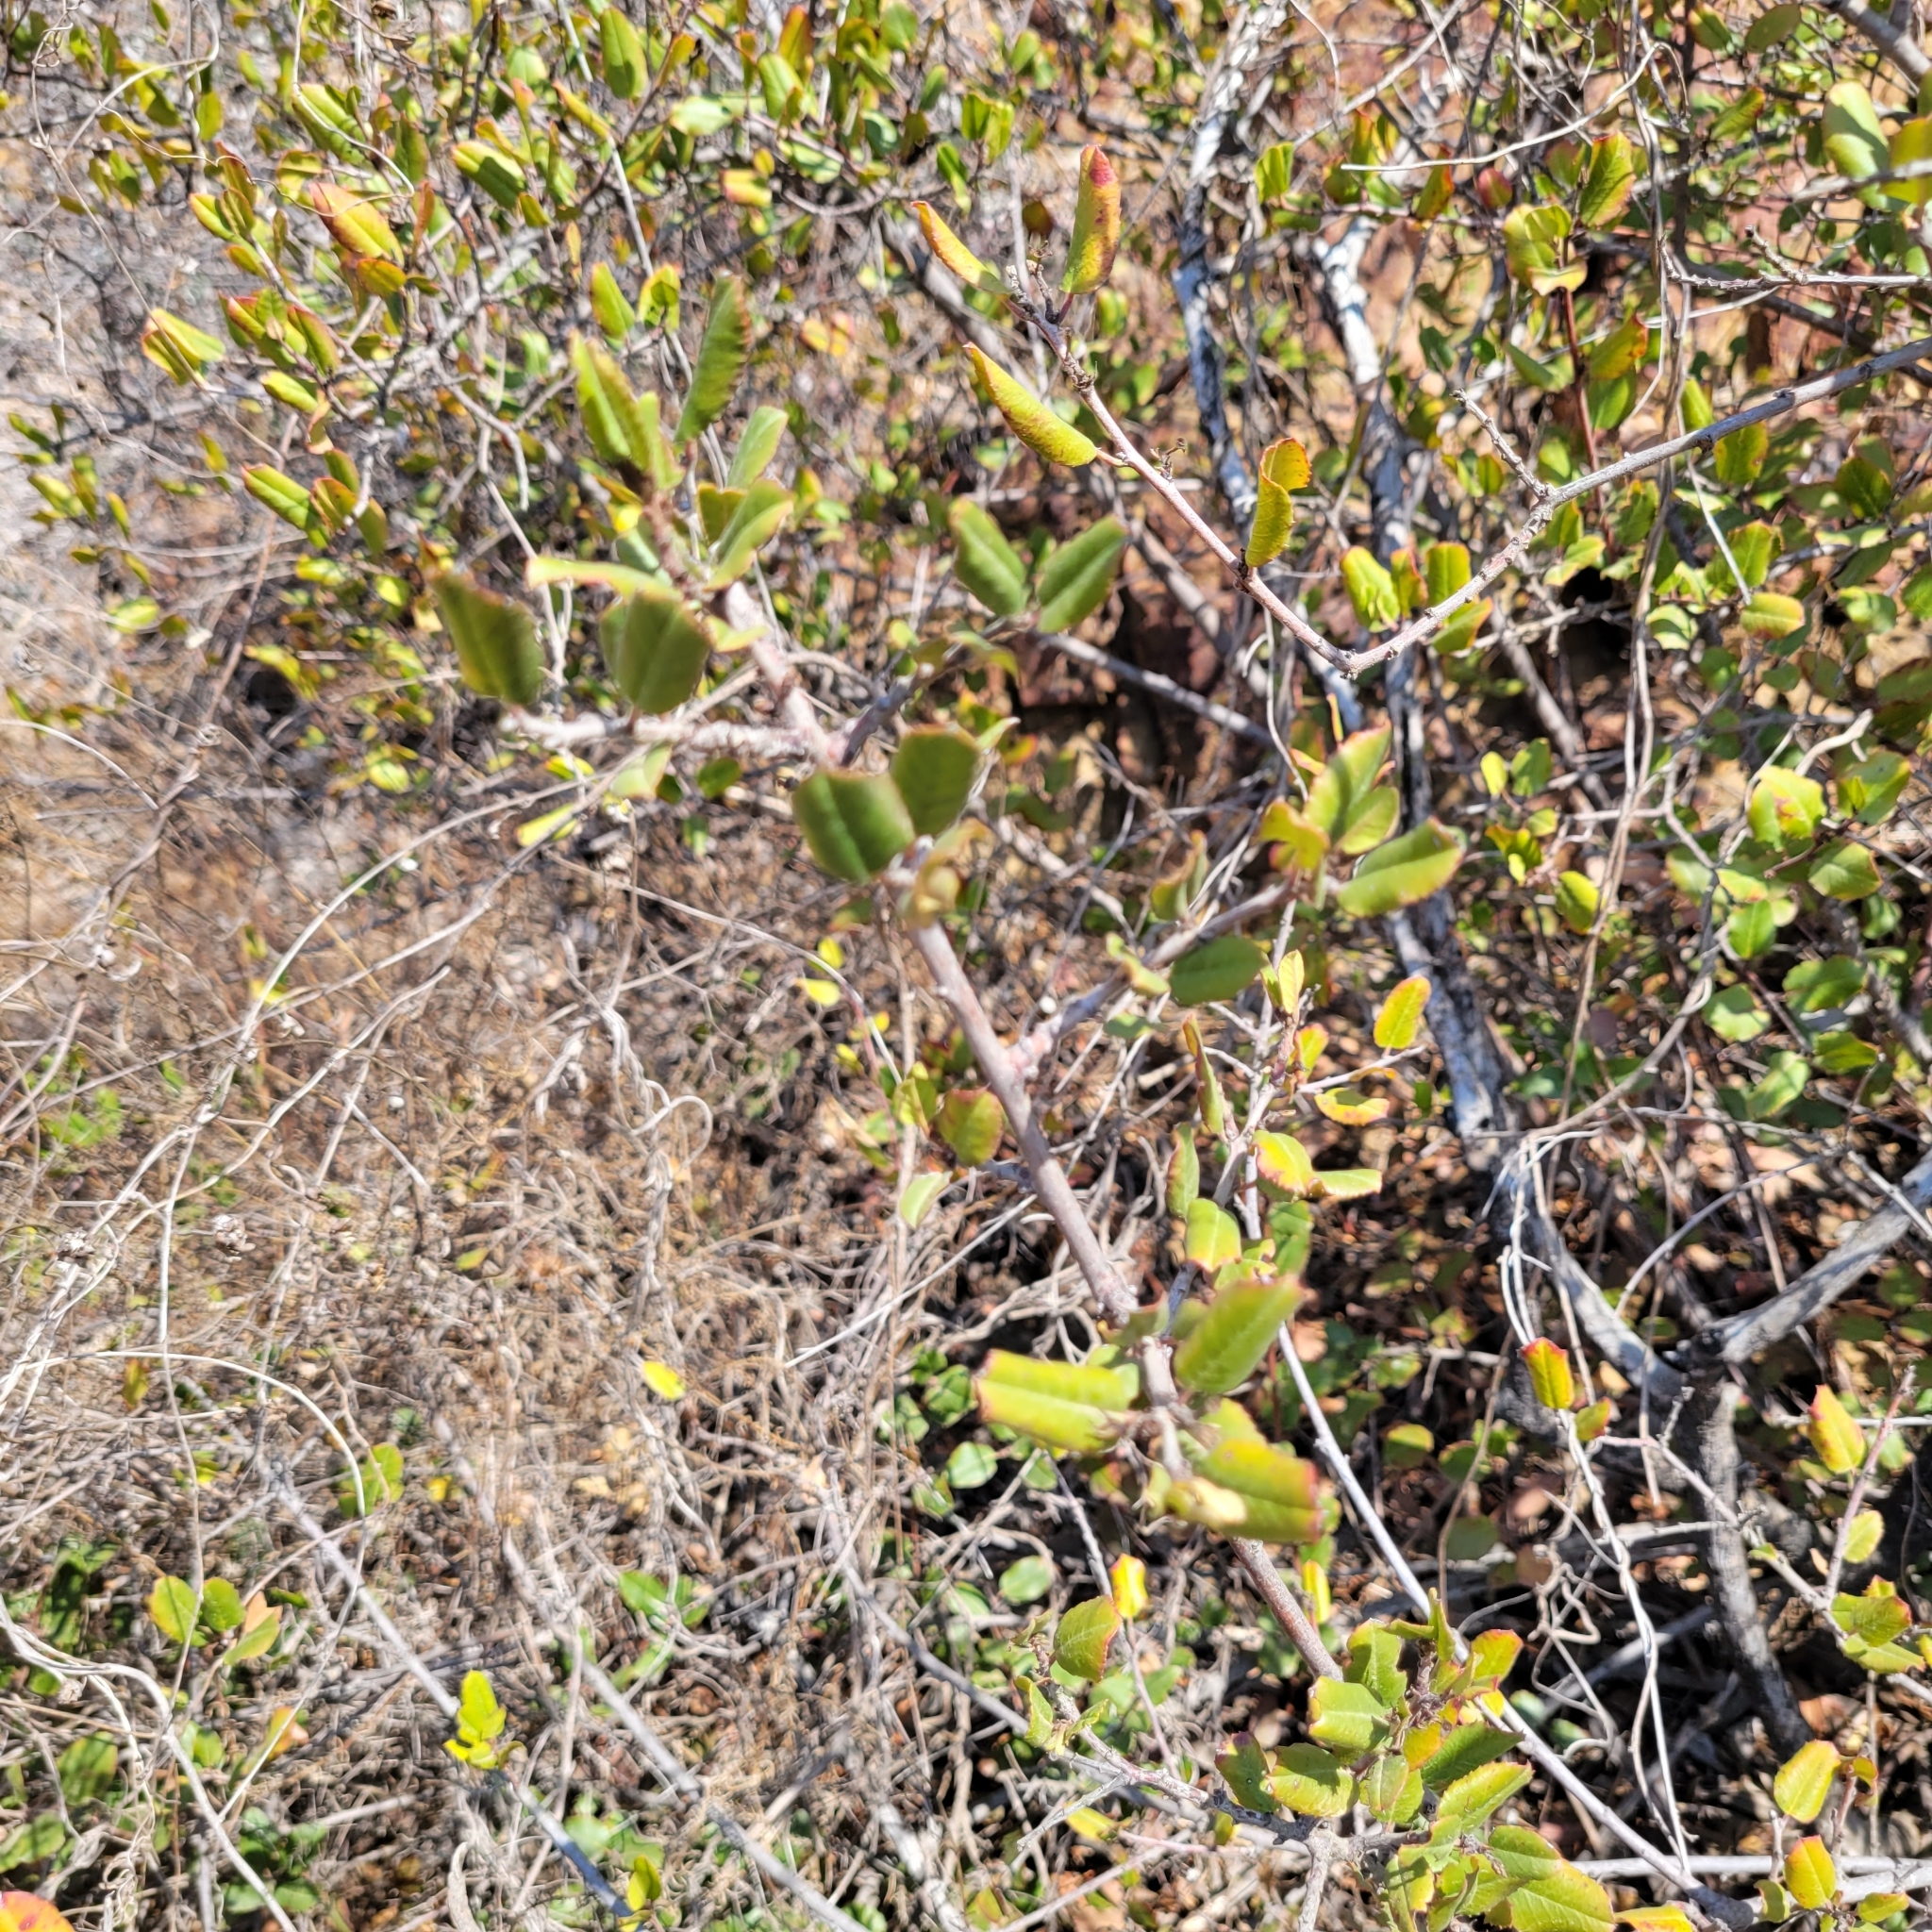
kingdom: Plantae
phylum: Tracheophyta
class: Magnoliopsida
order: Rosales
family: Rhamnaceae
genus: Endotropis
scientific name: Endotropis crocea
